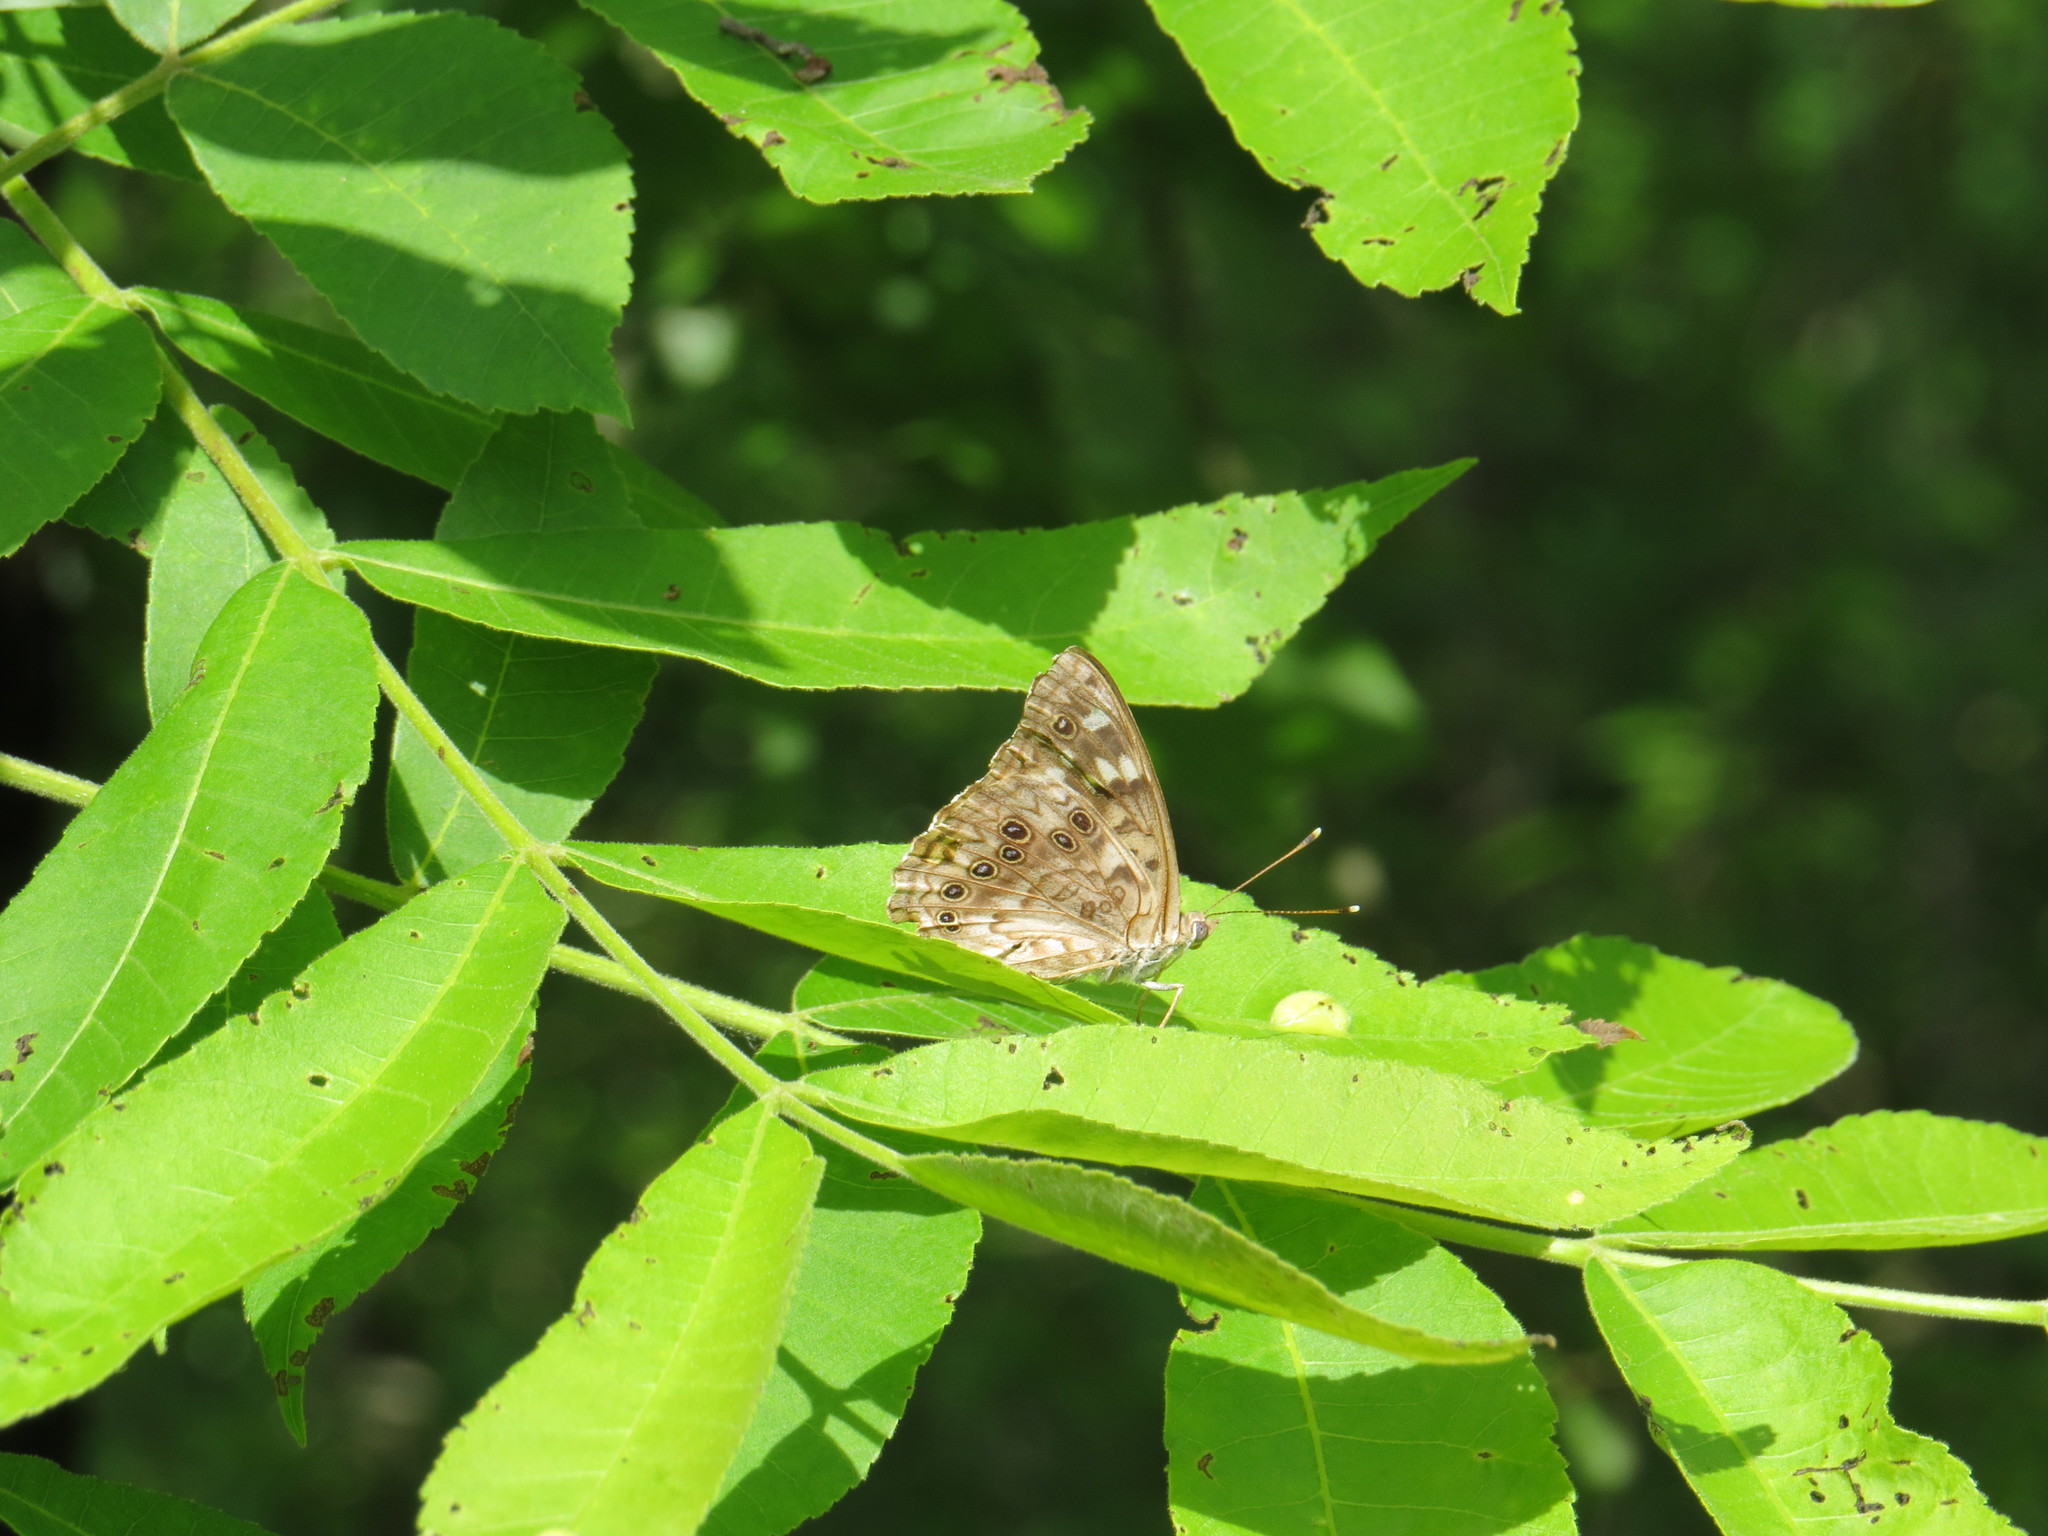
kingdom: Animalia
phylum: Arthropoda
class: Insecta
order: Lepidoptera
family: Nymphalidae
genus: Asterocampa
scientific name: Asterocampa celtis
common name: Hackberry emperor
